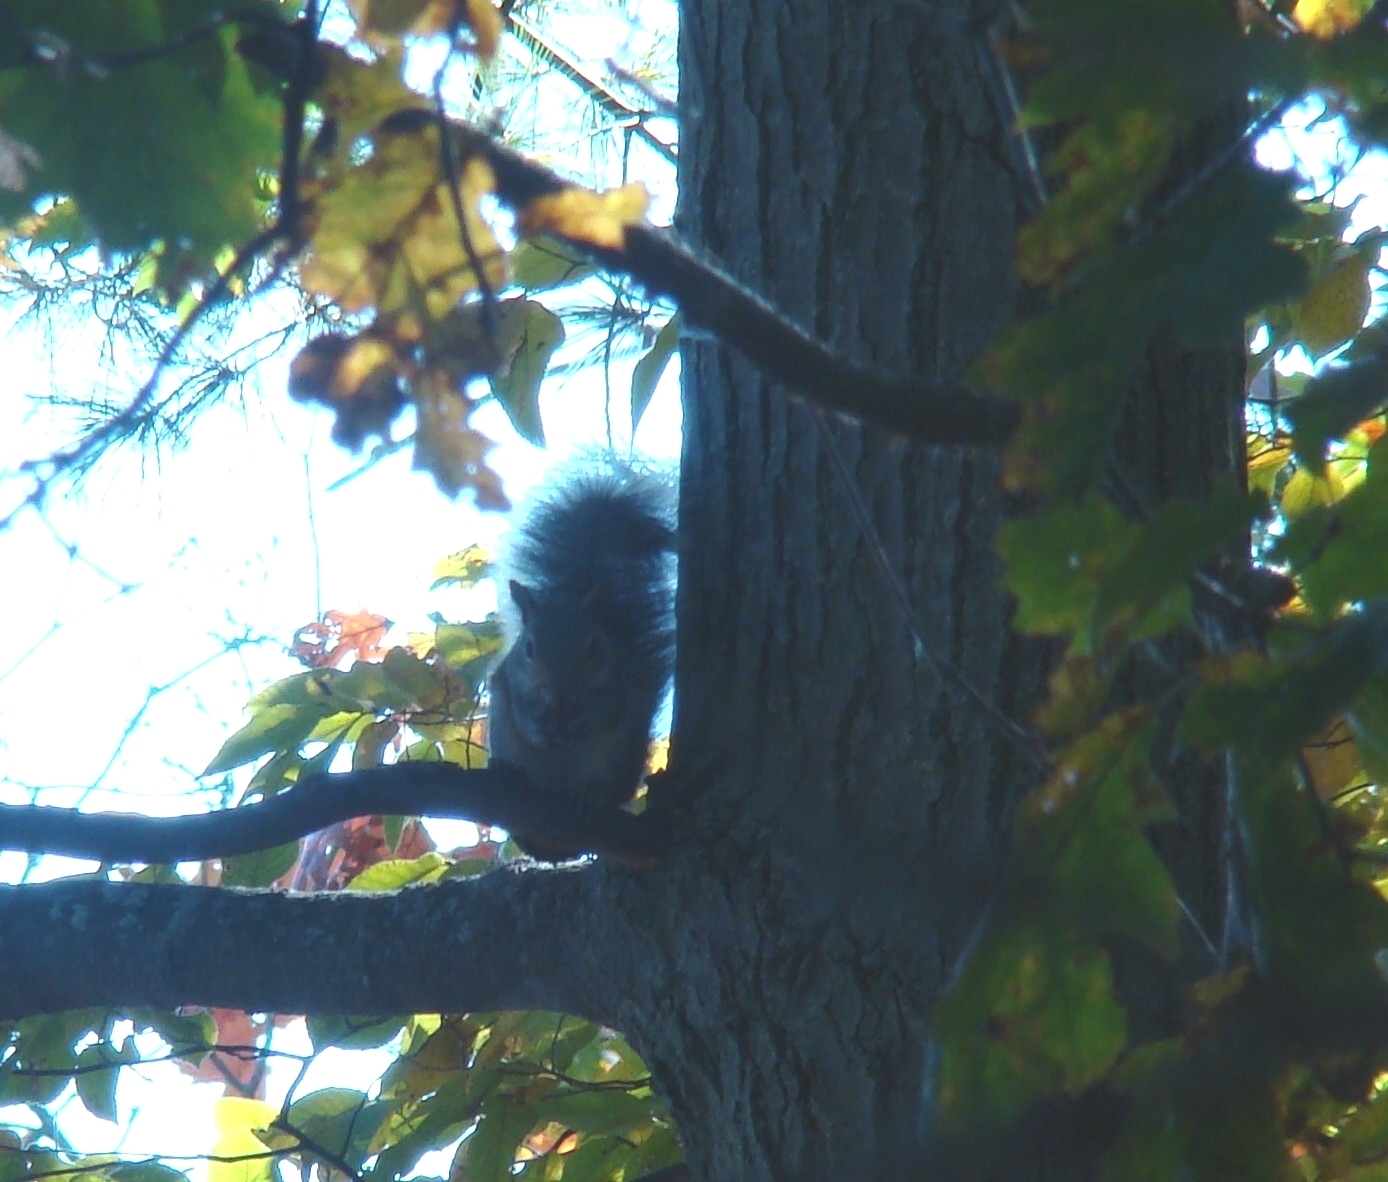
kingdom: Animalia
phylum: Chordata
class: Mammalia
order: Rodentia
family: Sciuridae
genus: Sciurus
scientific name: Sciurus carolinensis
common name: Eastern gray squirrel
